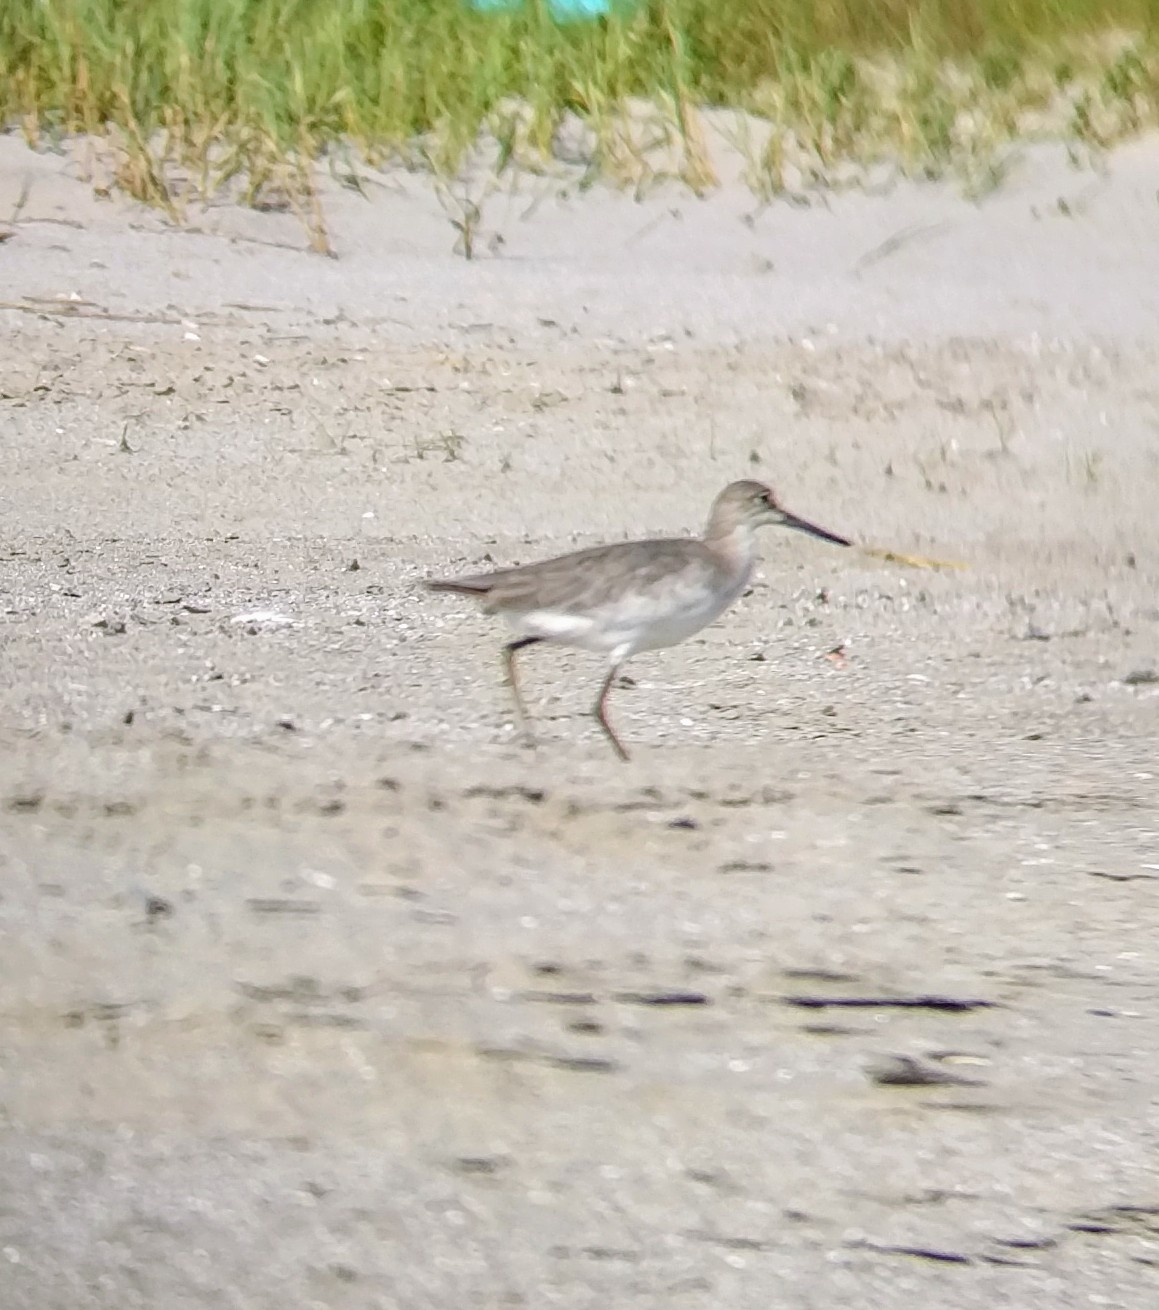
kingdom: Animalia
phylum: Chordata
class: Aves
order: Charadriiformes
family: Scolopacidae
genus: Tringa
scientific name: Tringa semipalmata
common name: Willet
